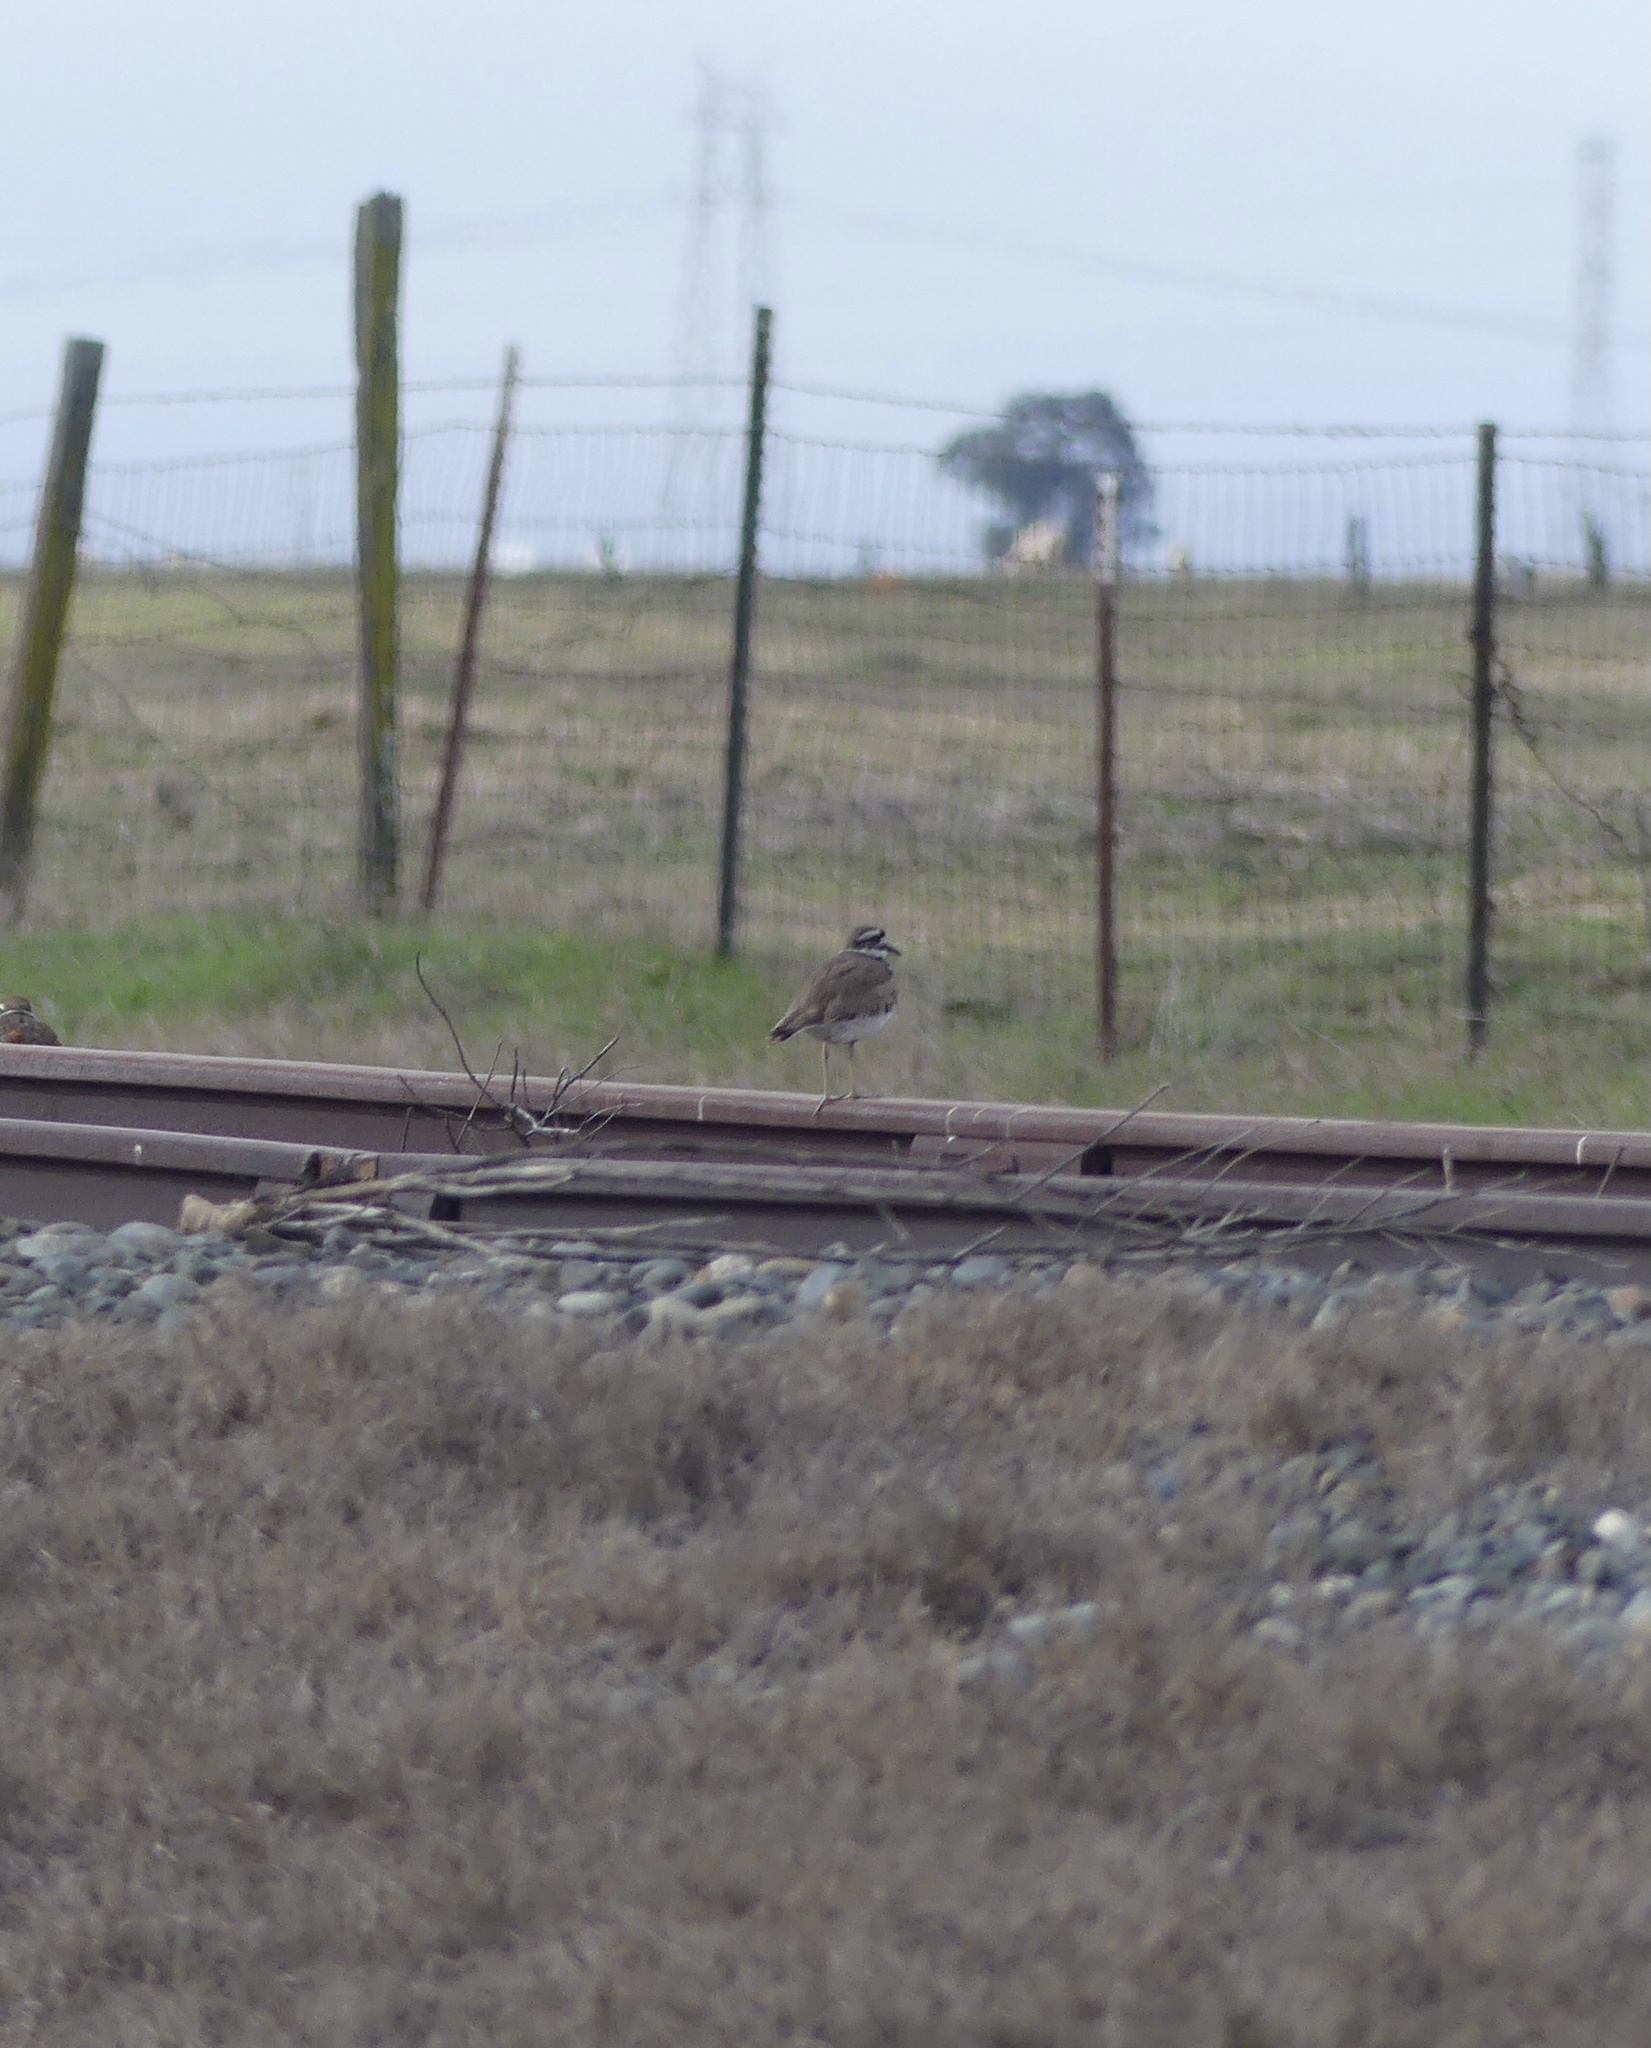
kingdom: Animalia
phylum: Chordata
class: Aves
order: Charadriiformes
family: Charadriidae
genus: Charadrius
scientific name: Charadrius vociferus
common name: Killdeer
